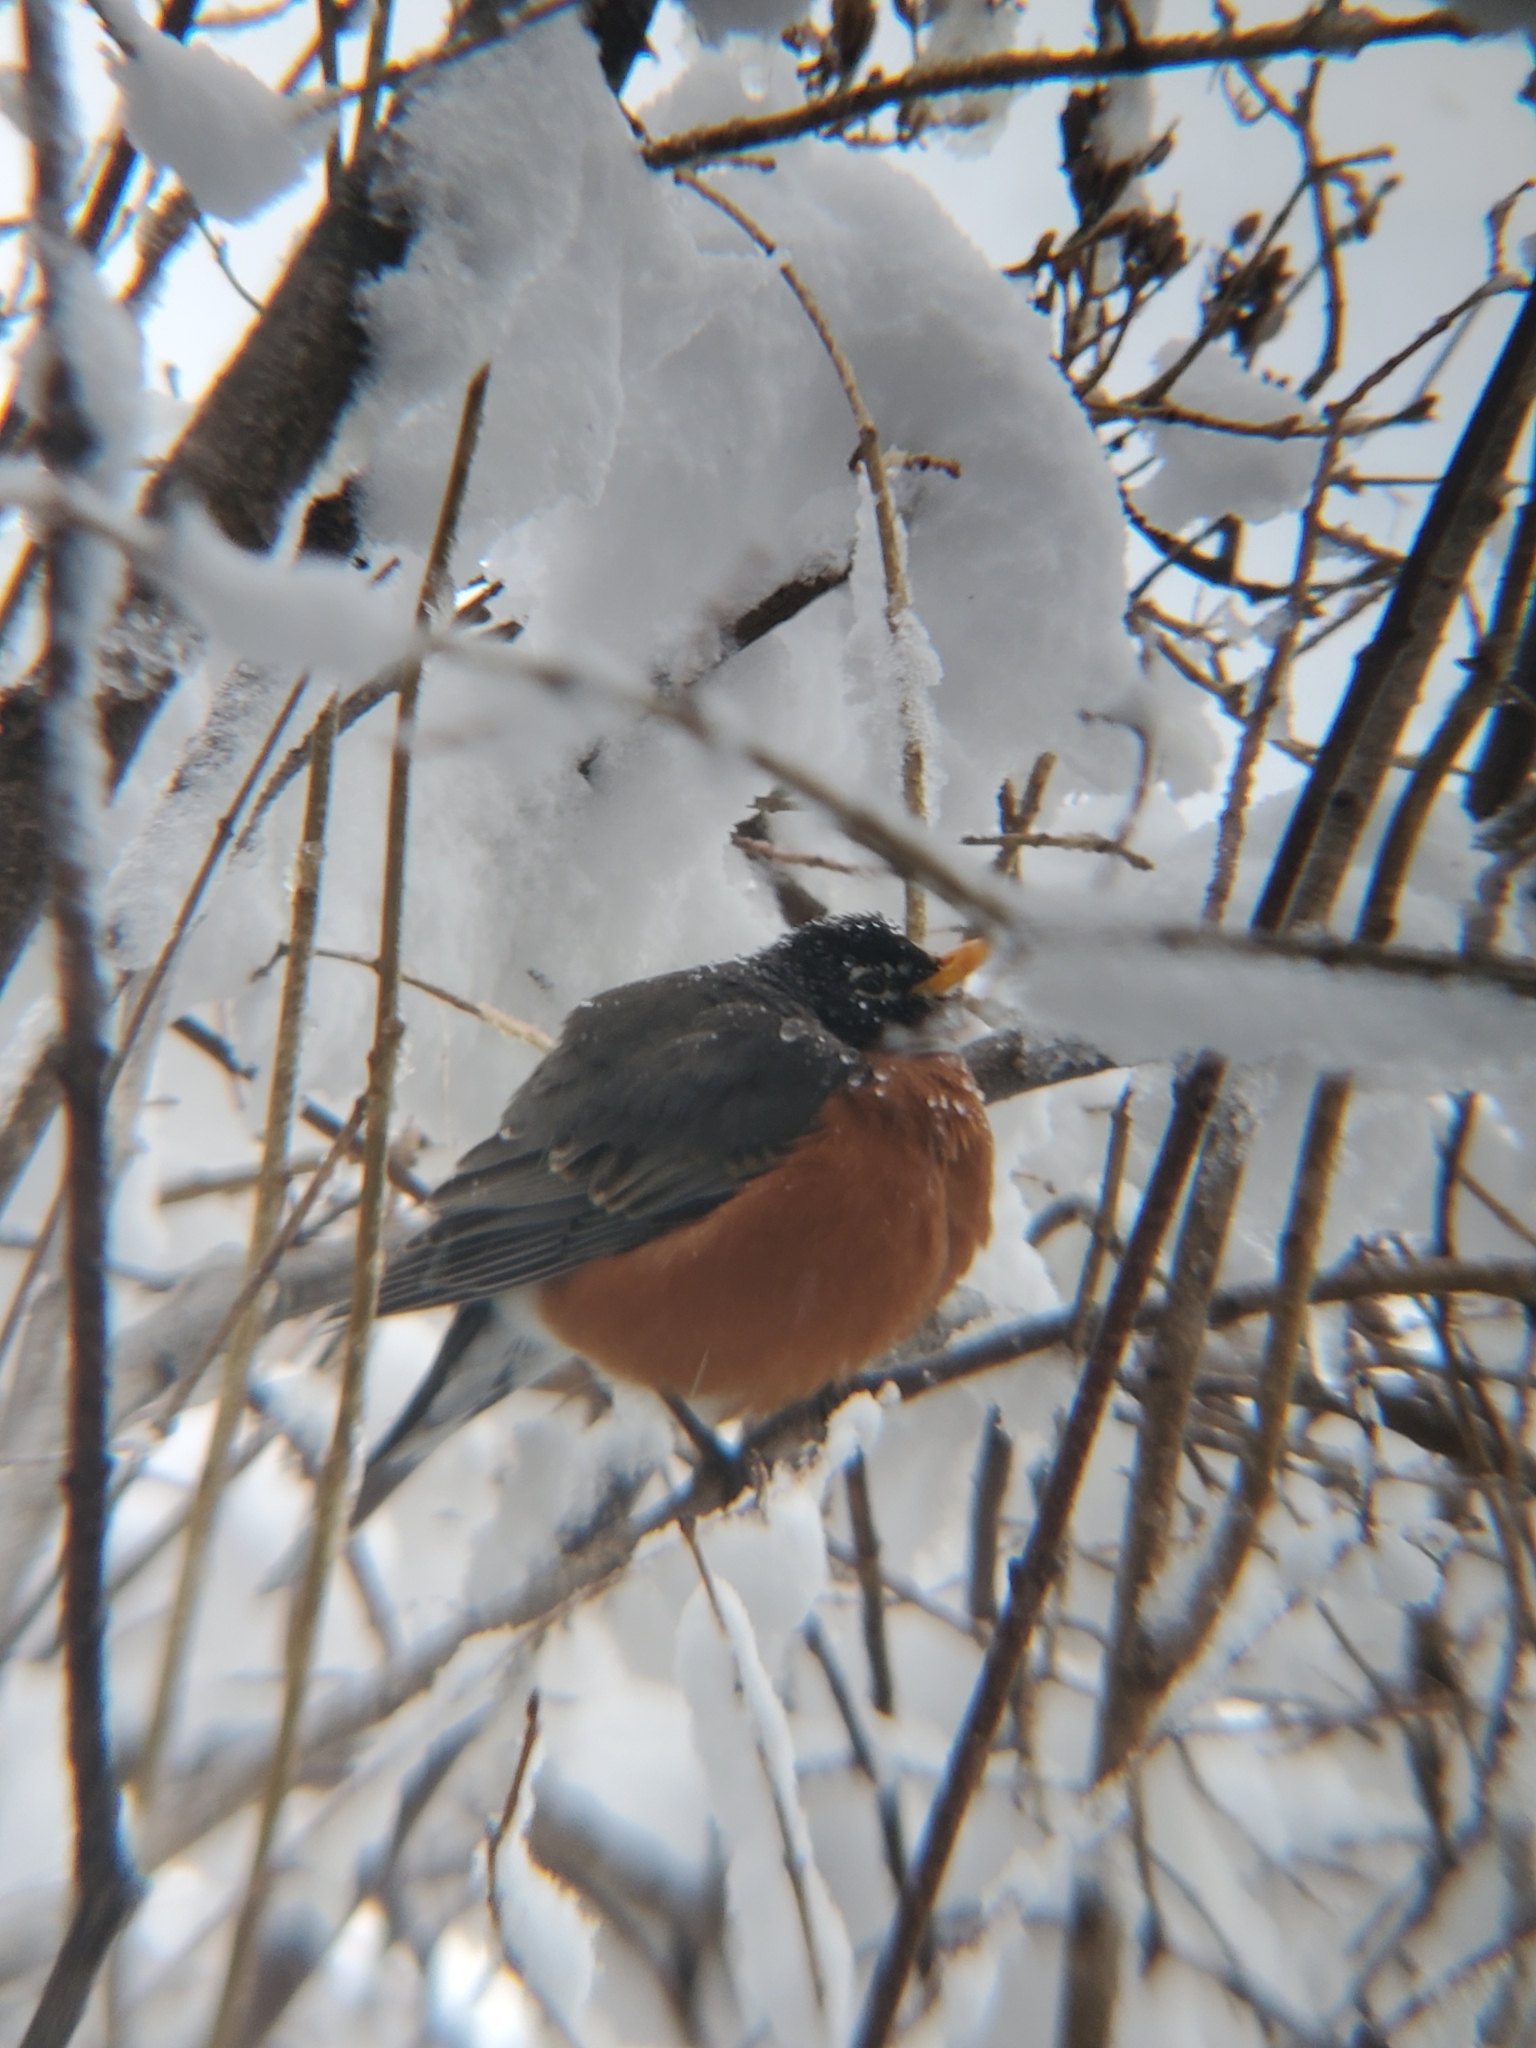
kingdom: Animalia
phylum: Chordata
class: Aves
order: Passeriformes
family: Turdidae
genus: Turdus
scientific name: Turdus migratorius
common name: American robin
